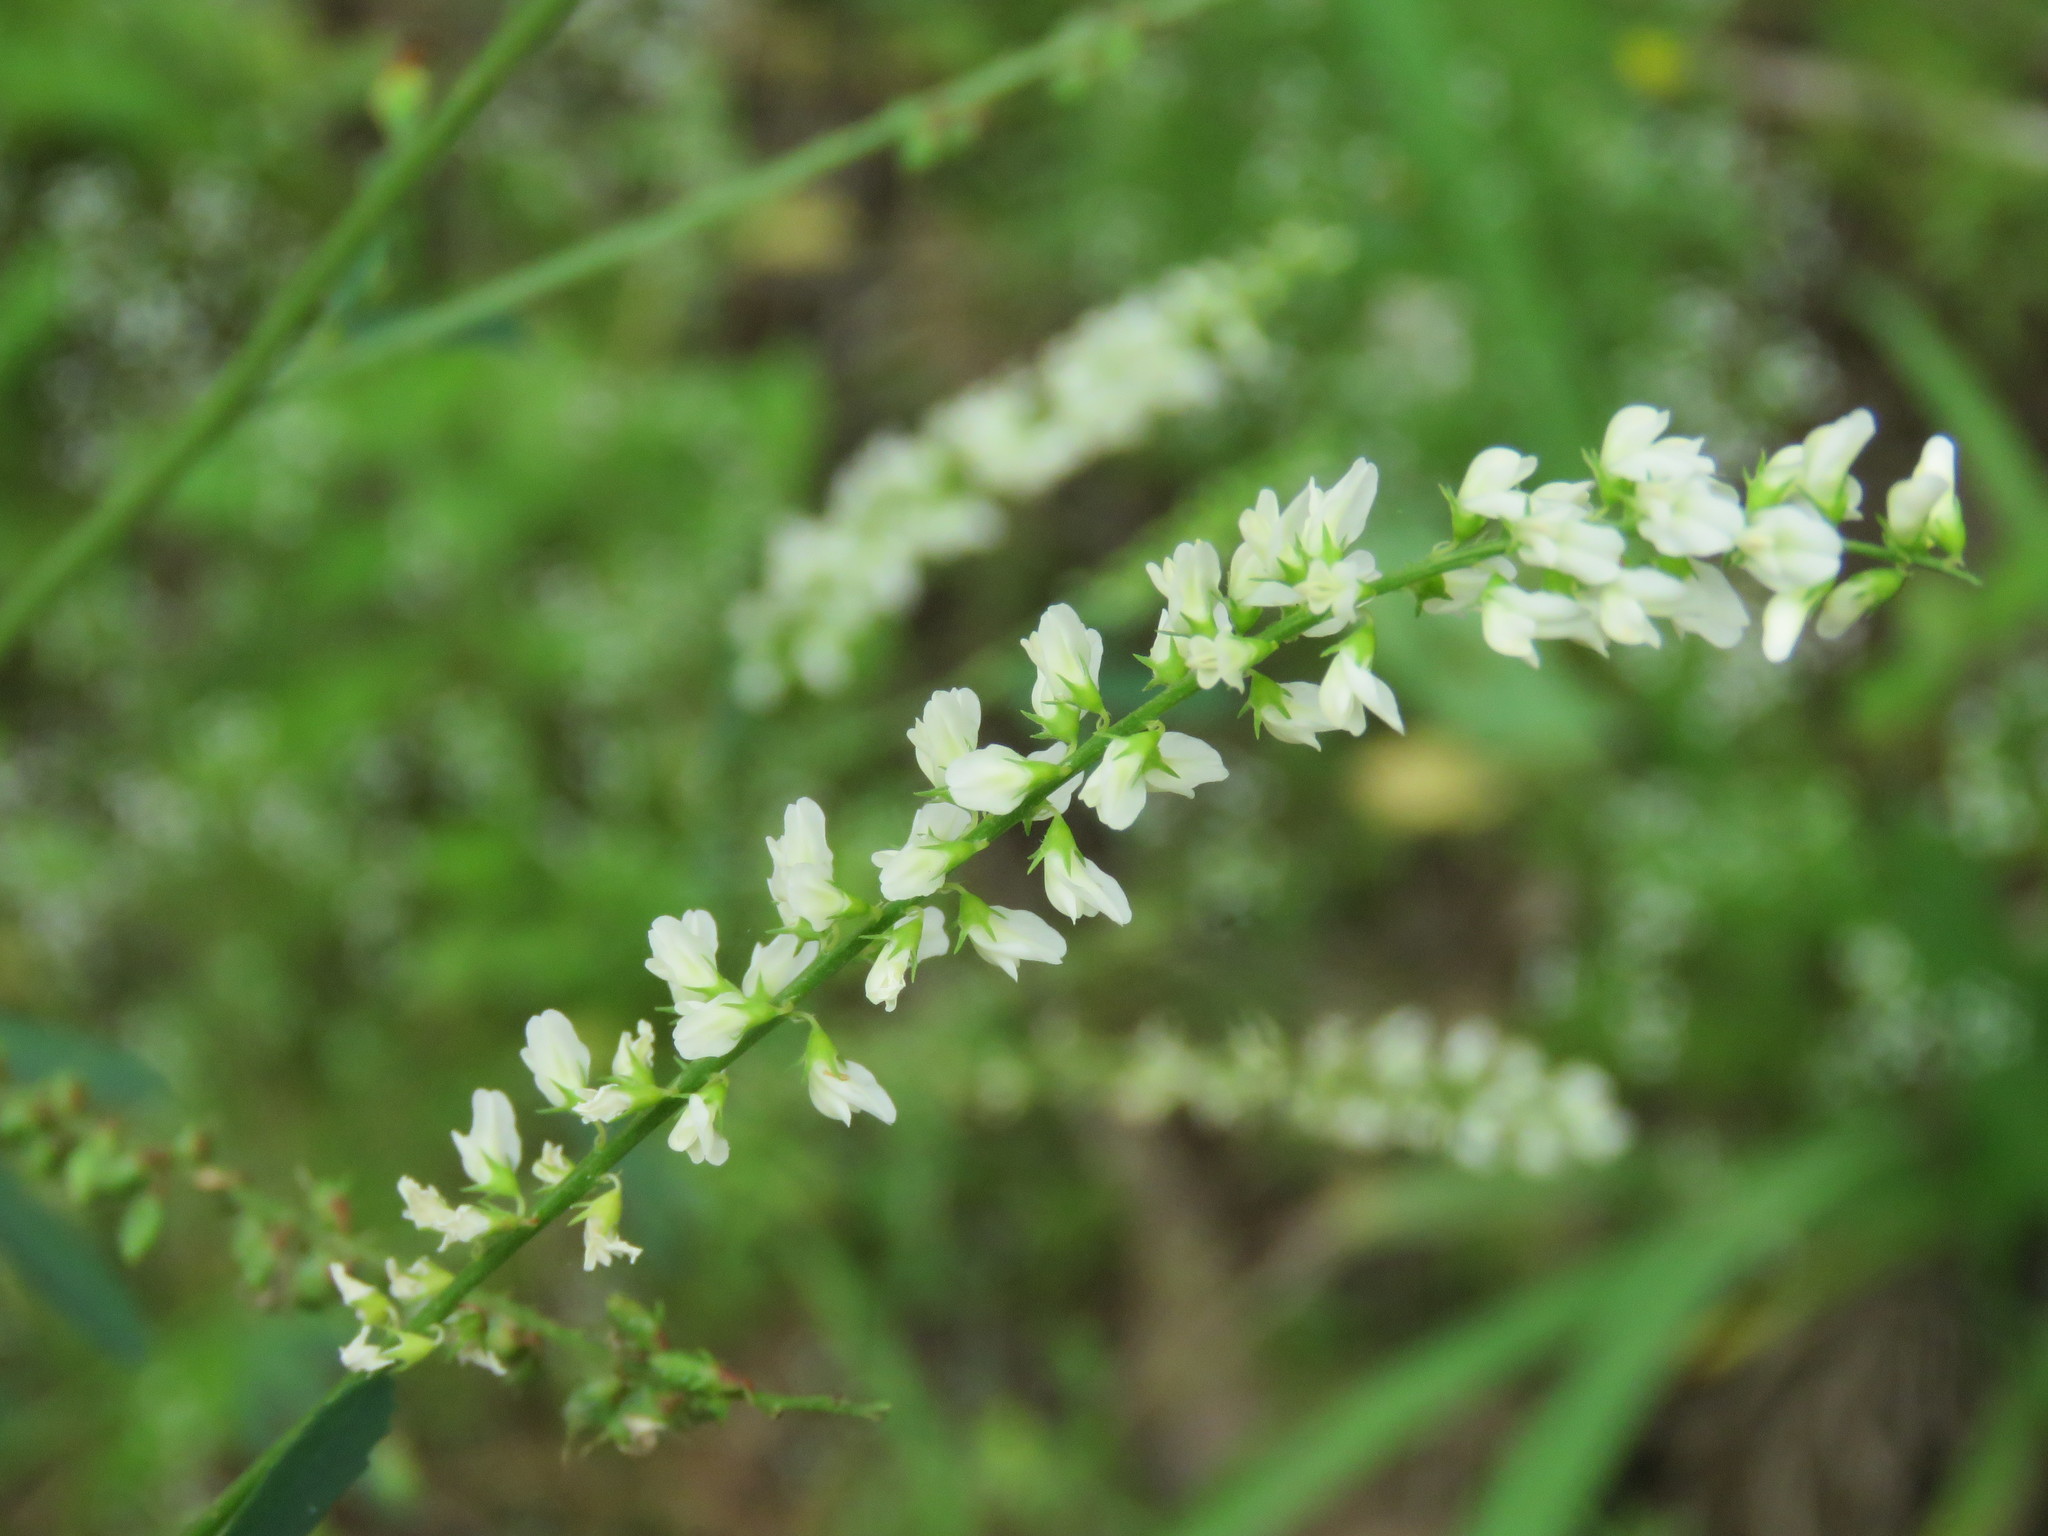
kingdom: Plantae
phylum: Tracheophyta
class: Magnoliopsida
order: Fabales
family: Fabaceae
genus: Melilotus
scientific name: Melilotus albus
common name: White melilot
